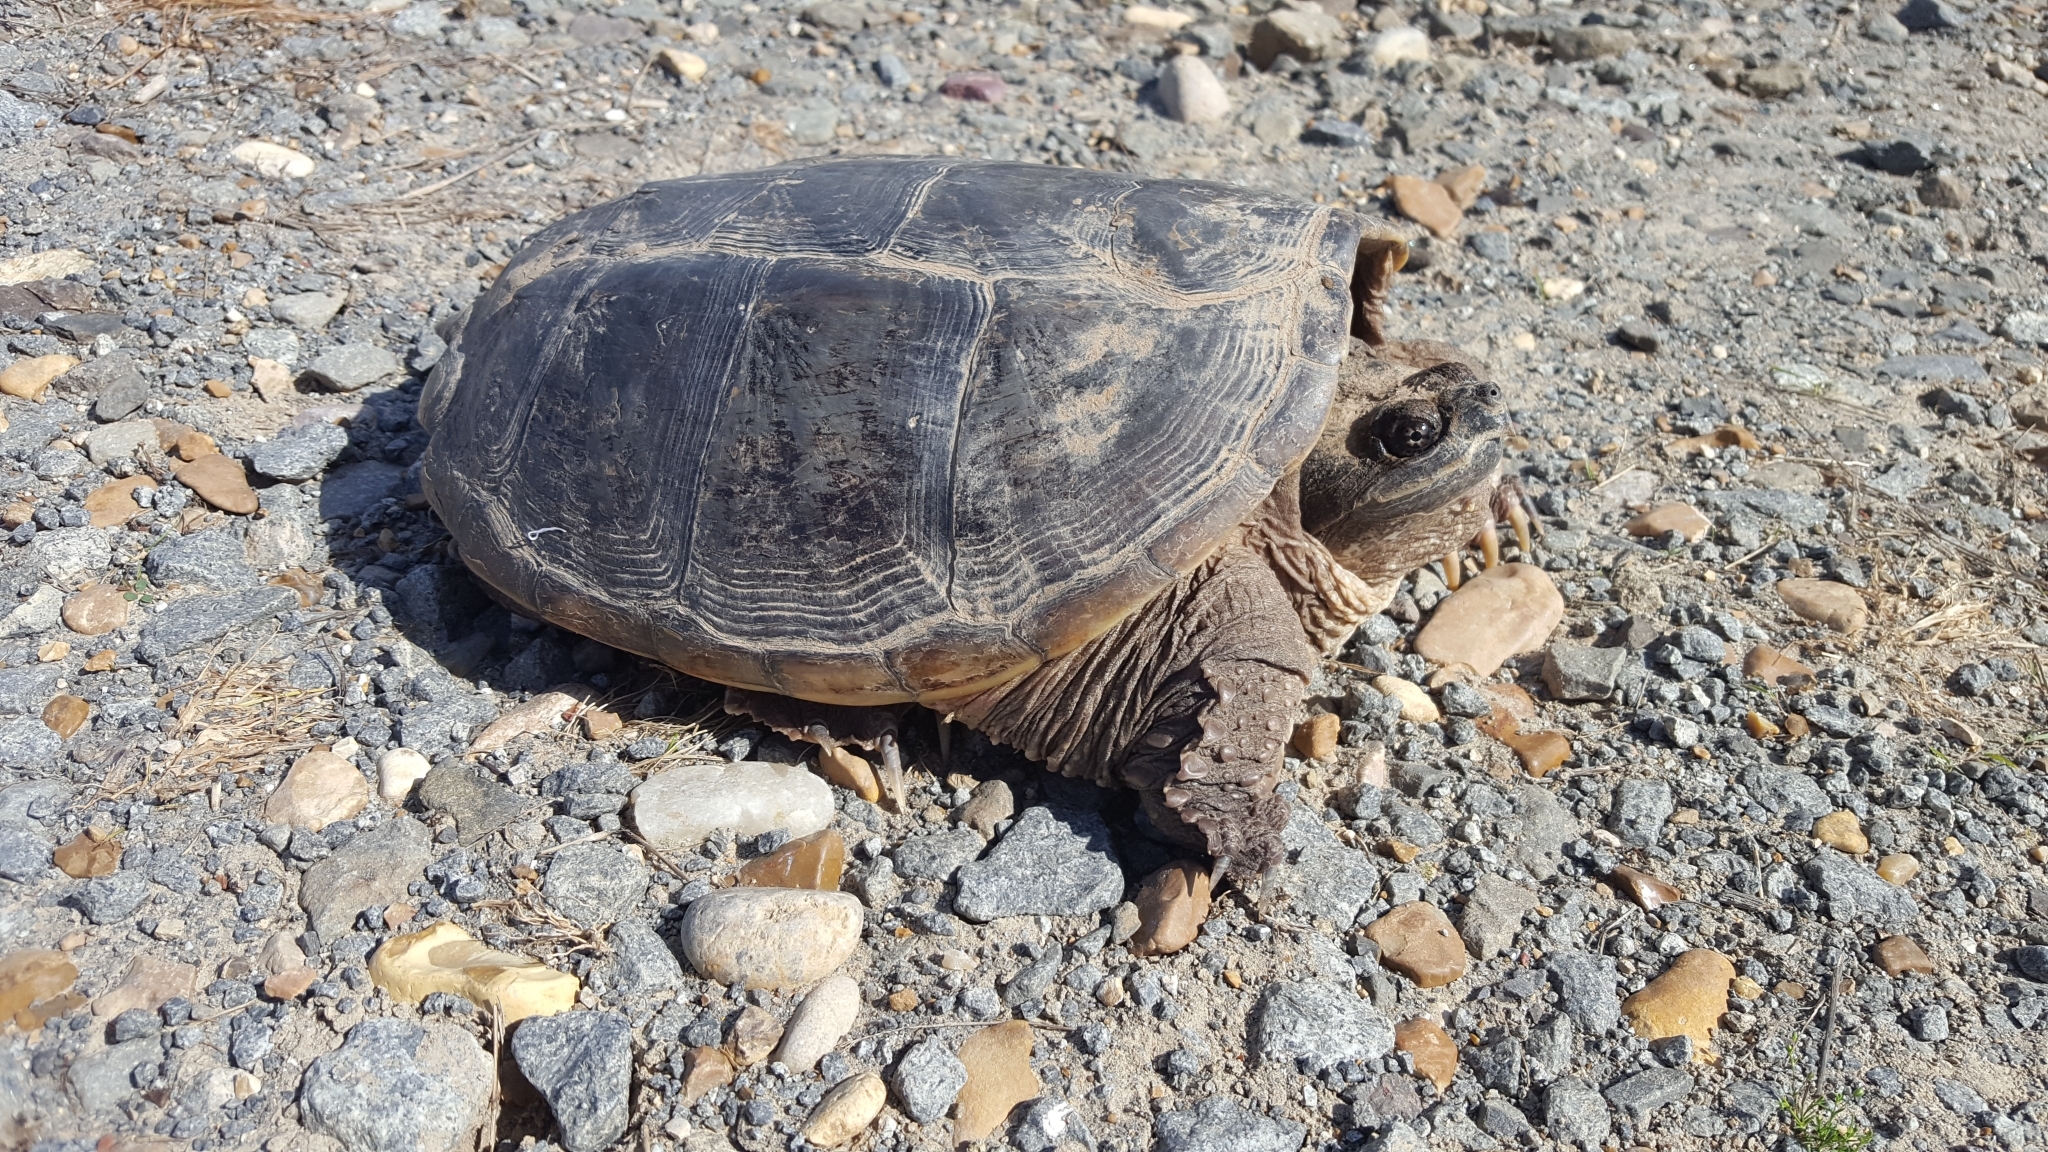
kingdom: Animalia
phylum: Chordata
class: Testudines
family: Chelydridae
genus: Chelydra
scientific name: Chelydra serpentina
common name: Common snapping turtle
